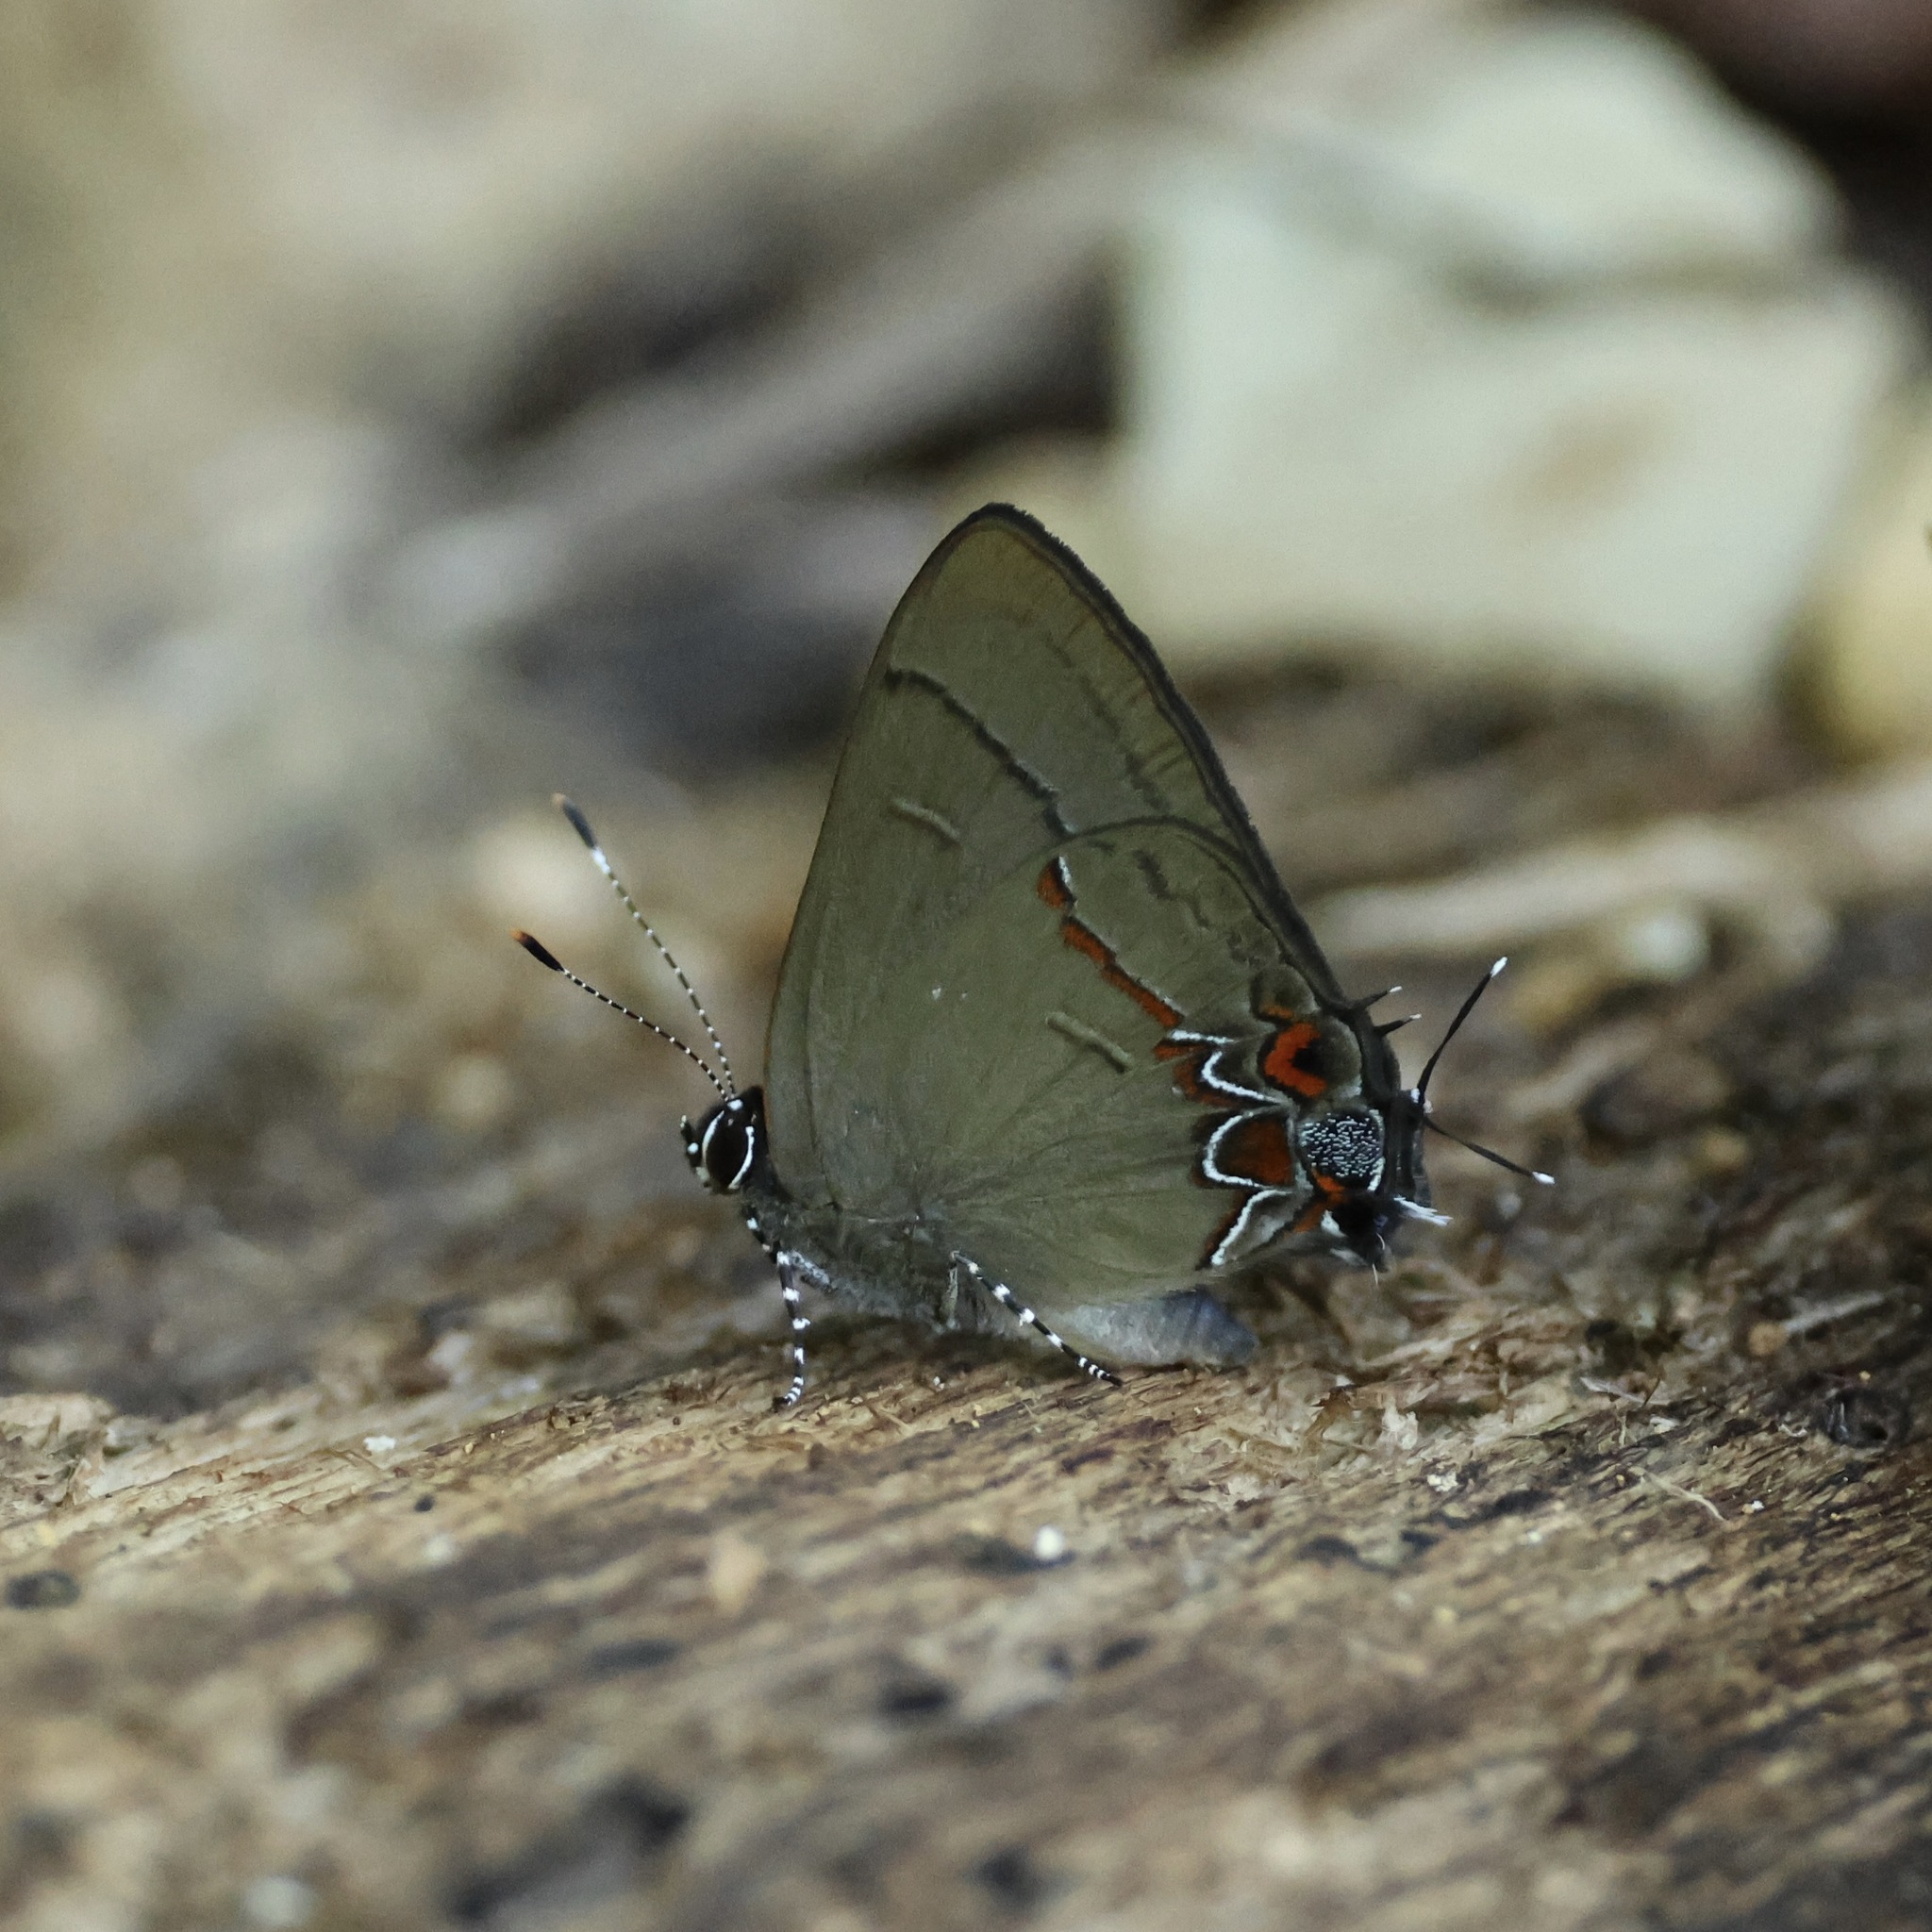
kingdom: Animalia
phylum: Arthropoda
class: Insecta
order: Lepidoptera
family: Lycaenidae
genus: Calycopis
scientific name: Calycopis isobeon
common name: Dusky-blue groundstreak
